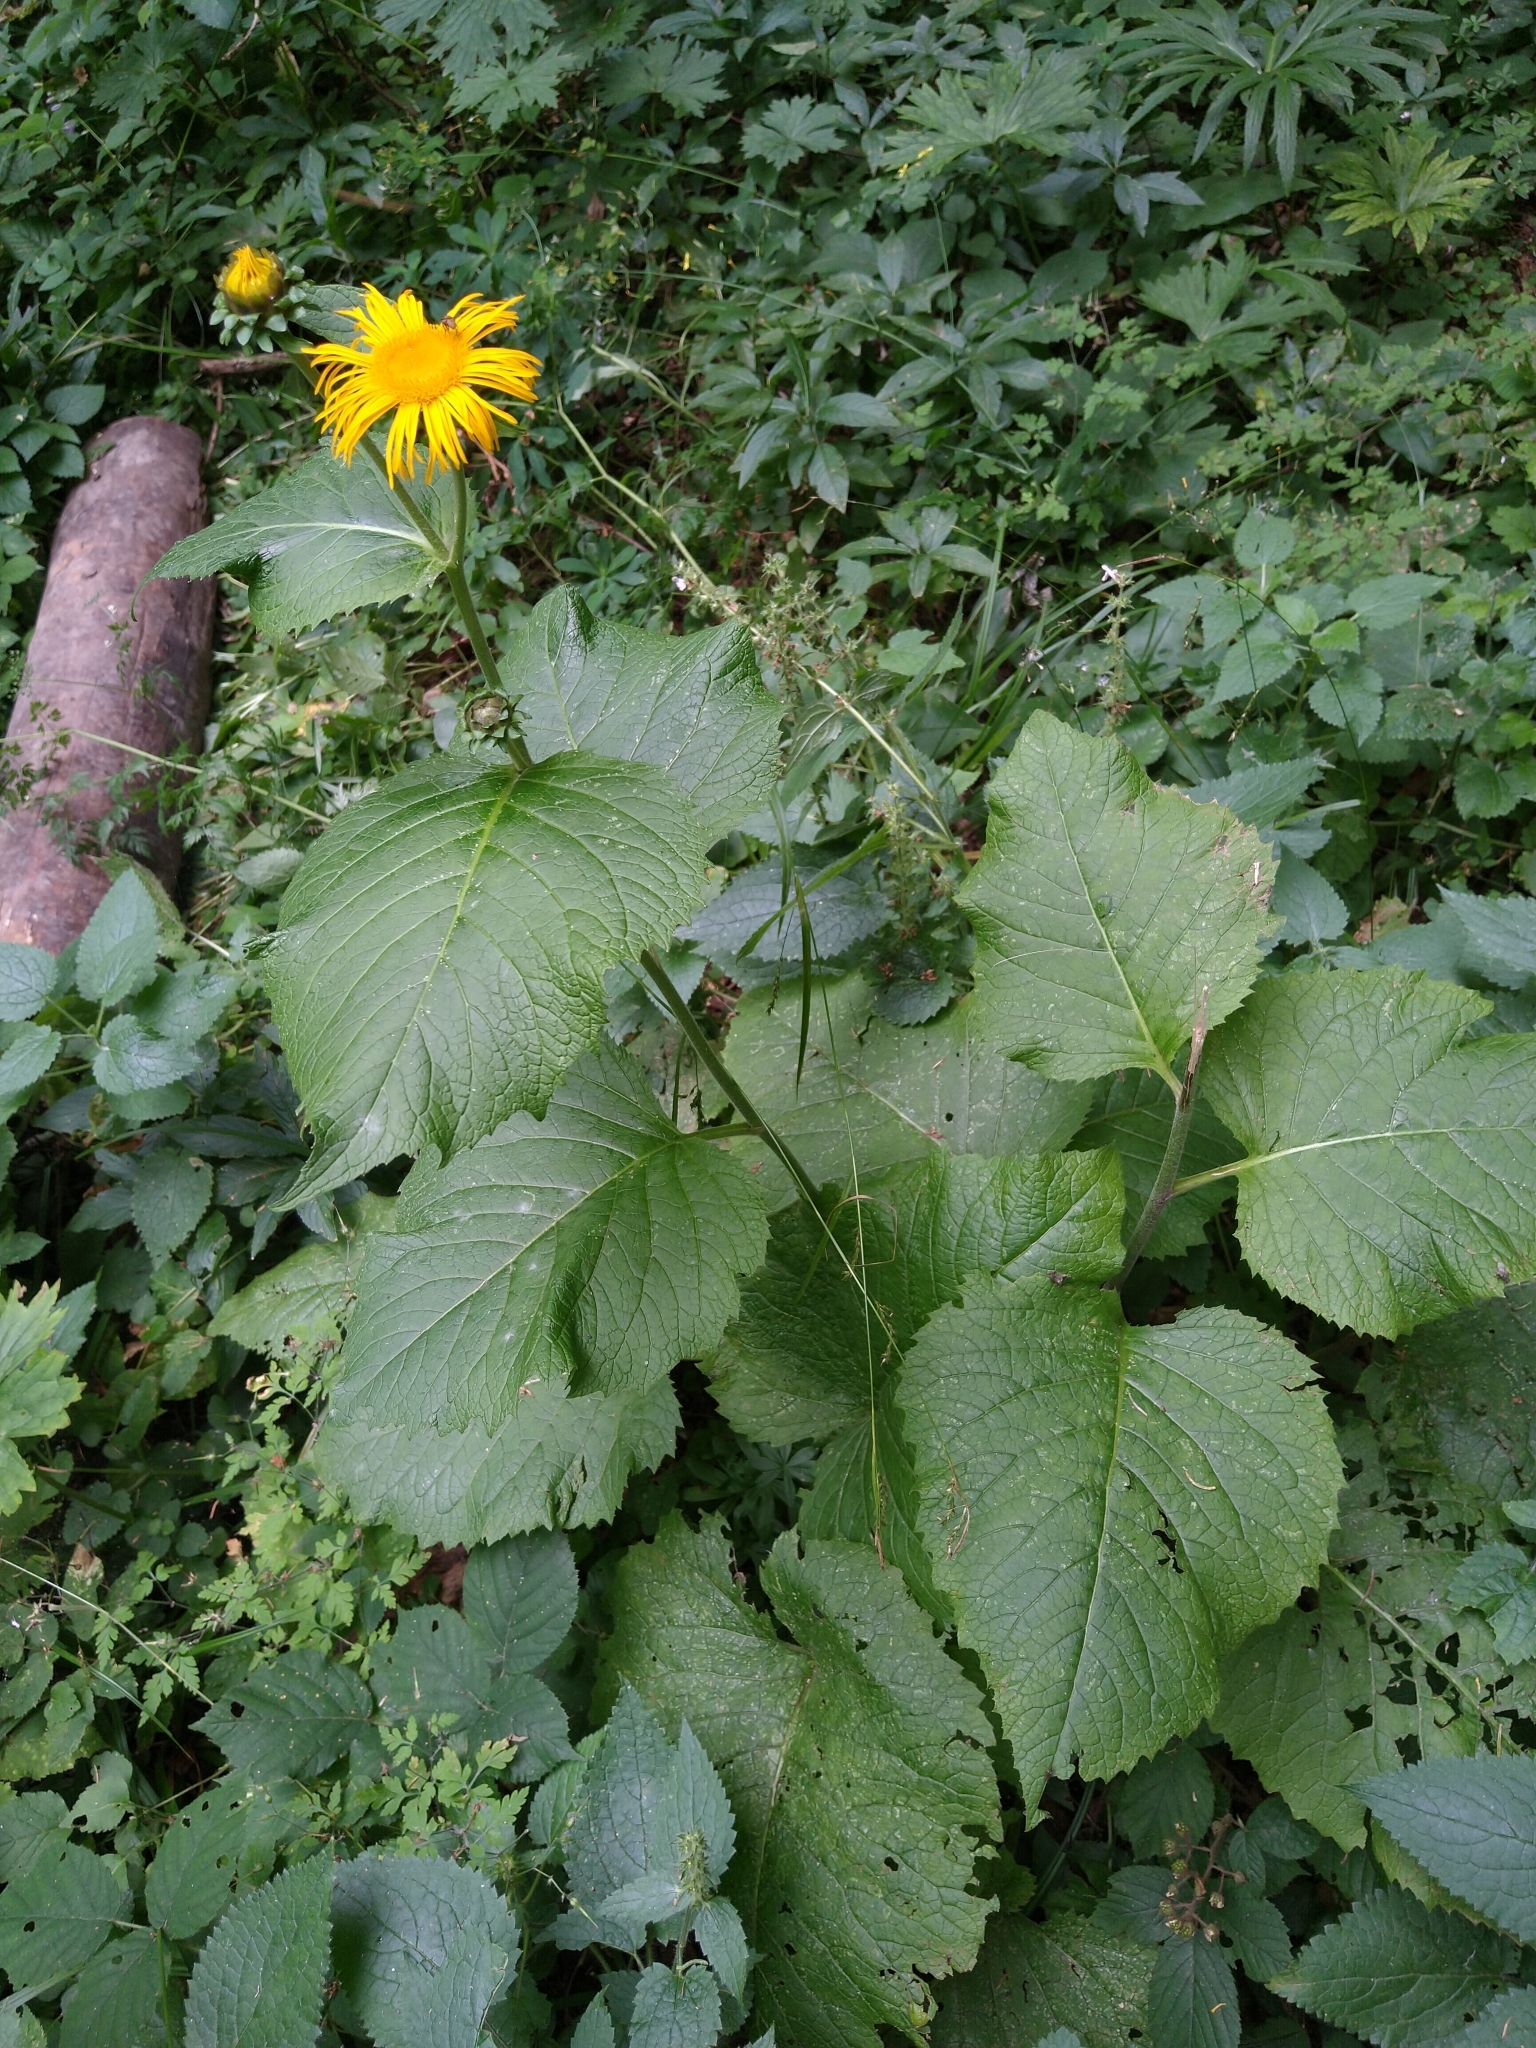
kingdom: Plantae
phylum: Tracheophyta
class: Magnoliopsida
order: Asterales
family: Asteraceae
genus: Telekia
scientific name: Telekia speciosa
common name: Yellow oxeye
